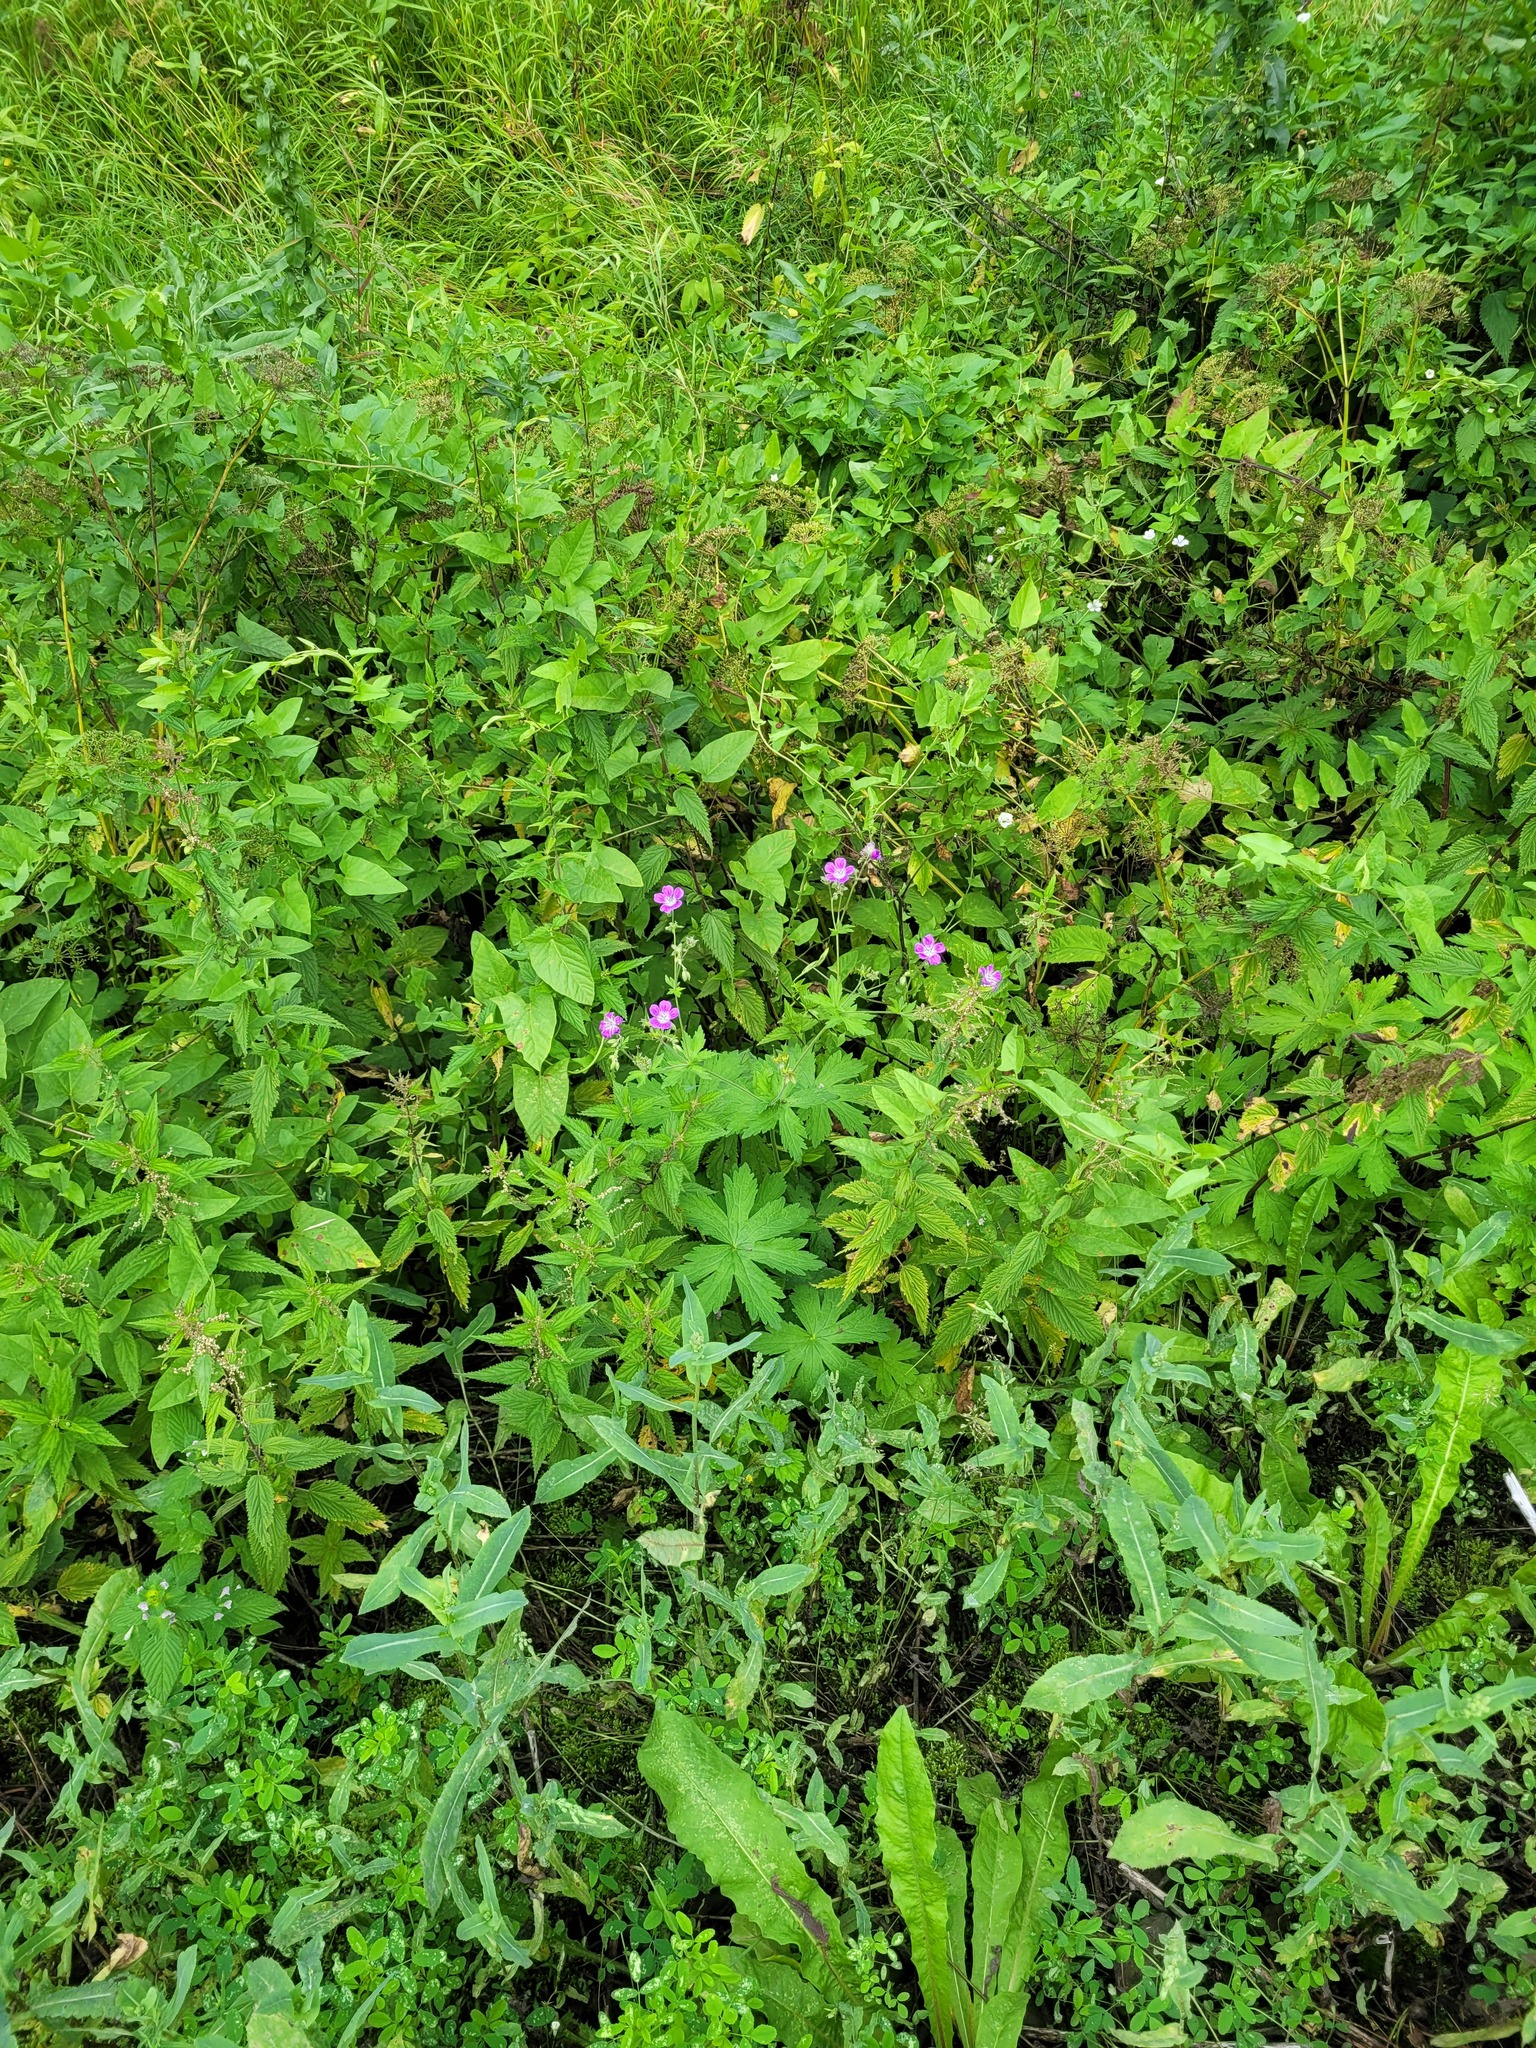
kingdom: Plantae
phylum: Tracheophyta
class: Magnoliopsida
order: Geraniales
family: Geraniaceae
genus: Geranium
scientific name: Geranium sylvaticum
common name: Wood crane's-bill
